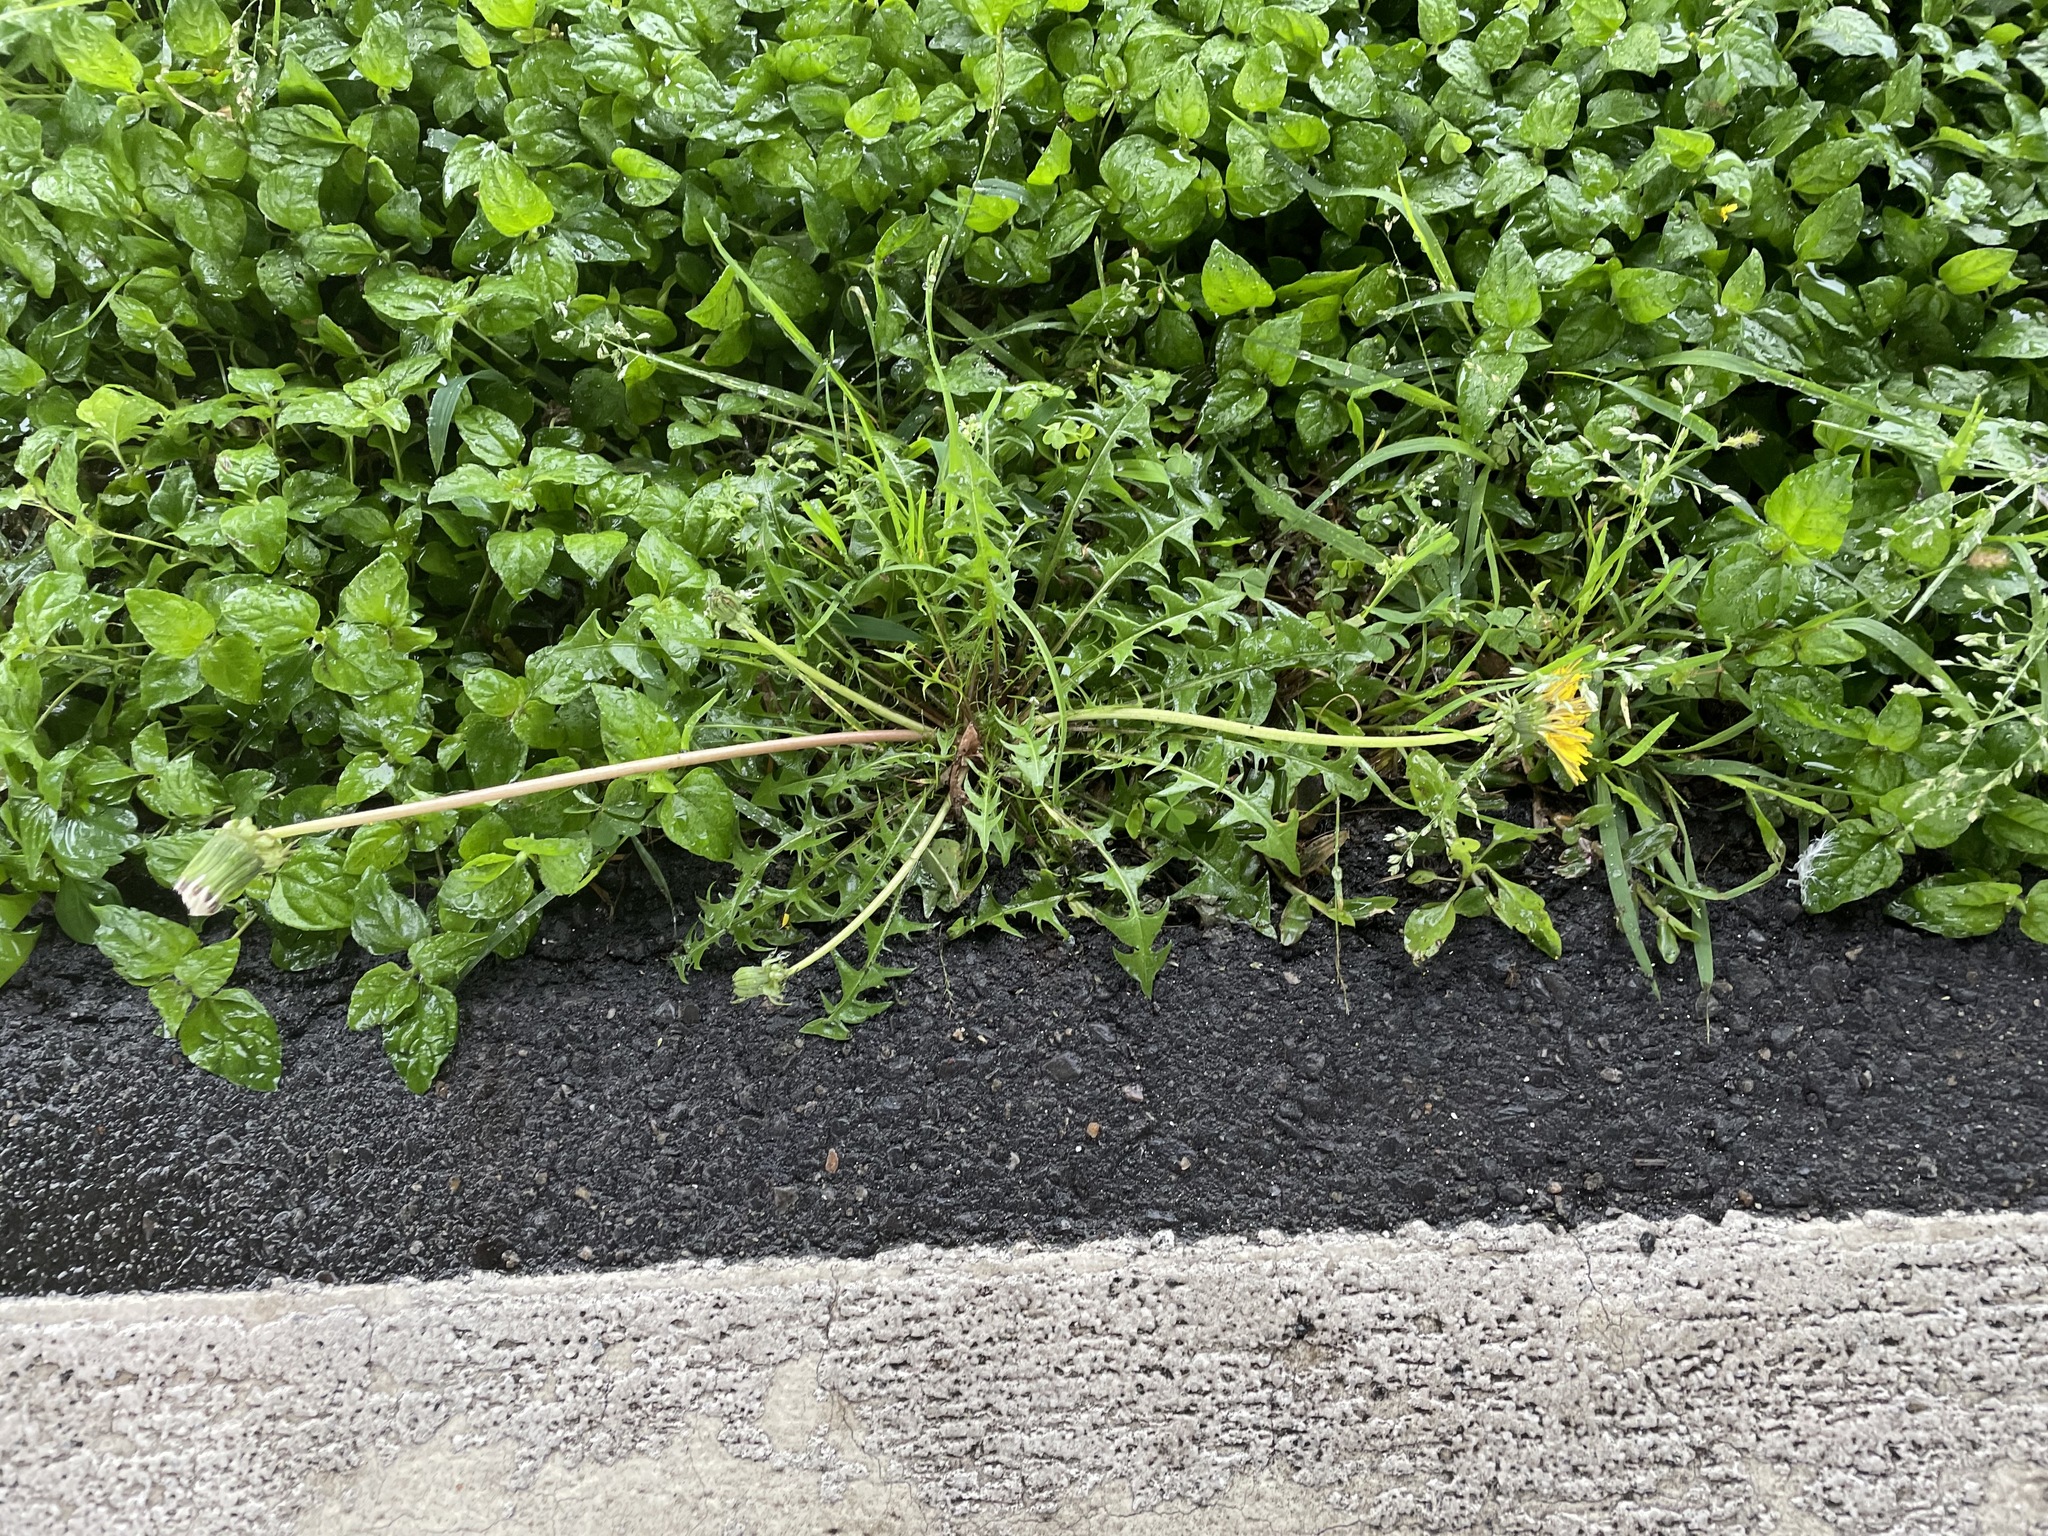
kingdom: Plantae
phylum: Tracheophyta
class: Magnoliopsida
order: Asterales
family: Asteraceae
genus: Taraxacum
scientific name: Taraxacum officinale
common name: Common dandelion
